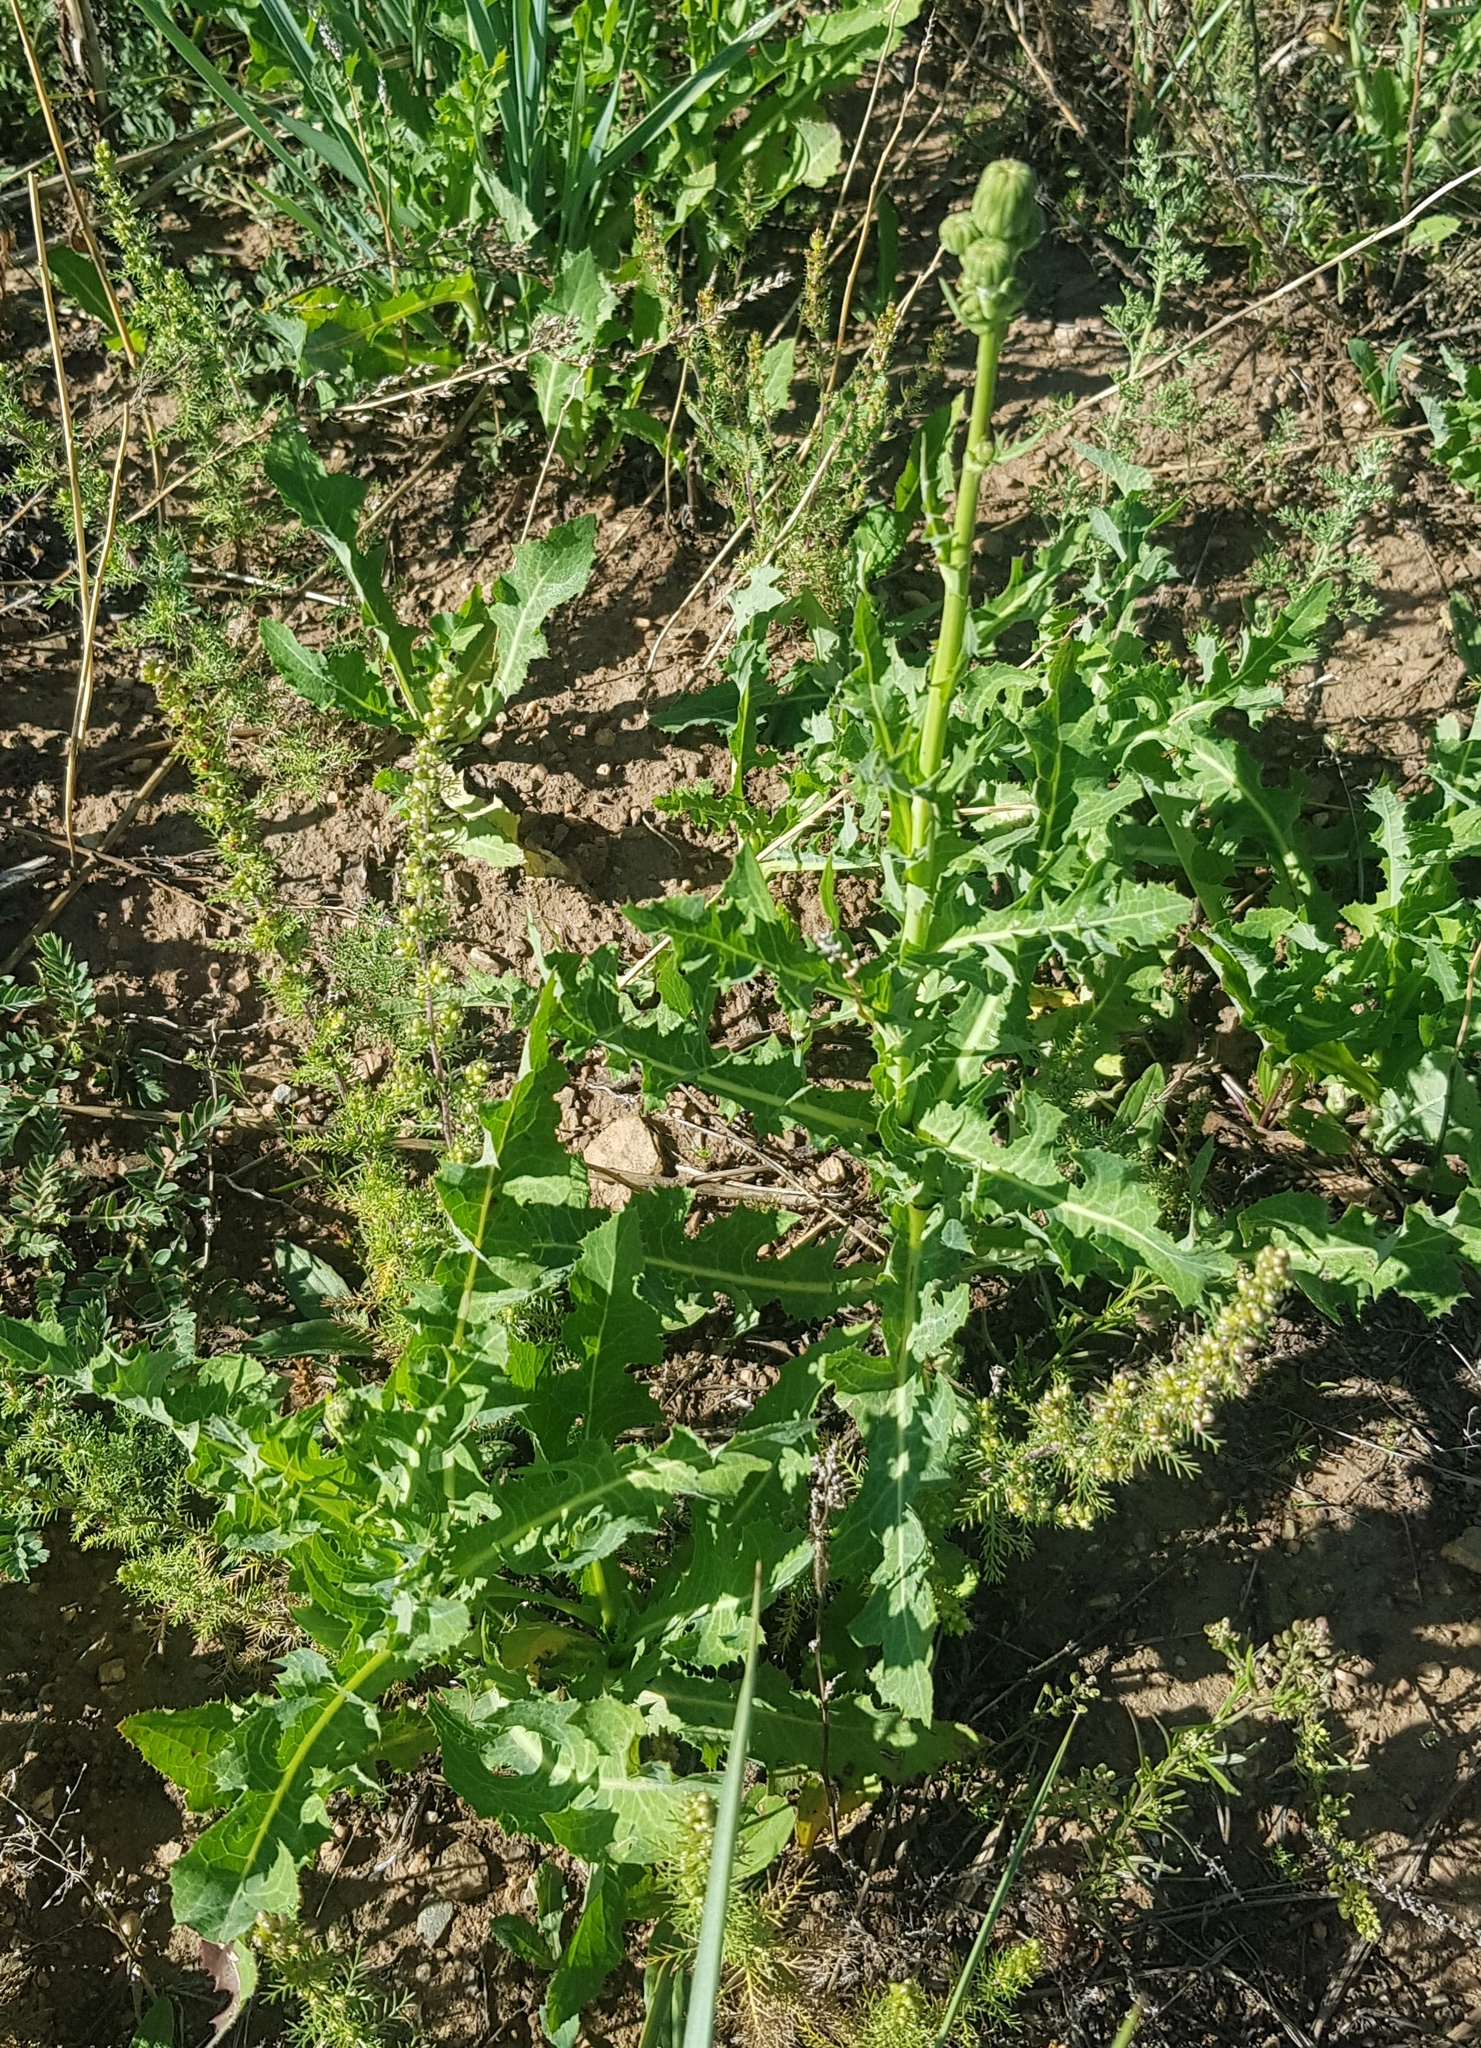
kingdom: Plantae
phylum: Tracheophyta
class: Magnoliopsida
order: Asterales
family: Asteraceae
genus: Sonchus
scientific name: Sonchus oleraceus
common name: Common sowthistle
